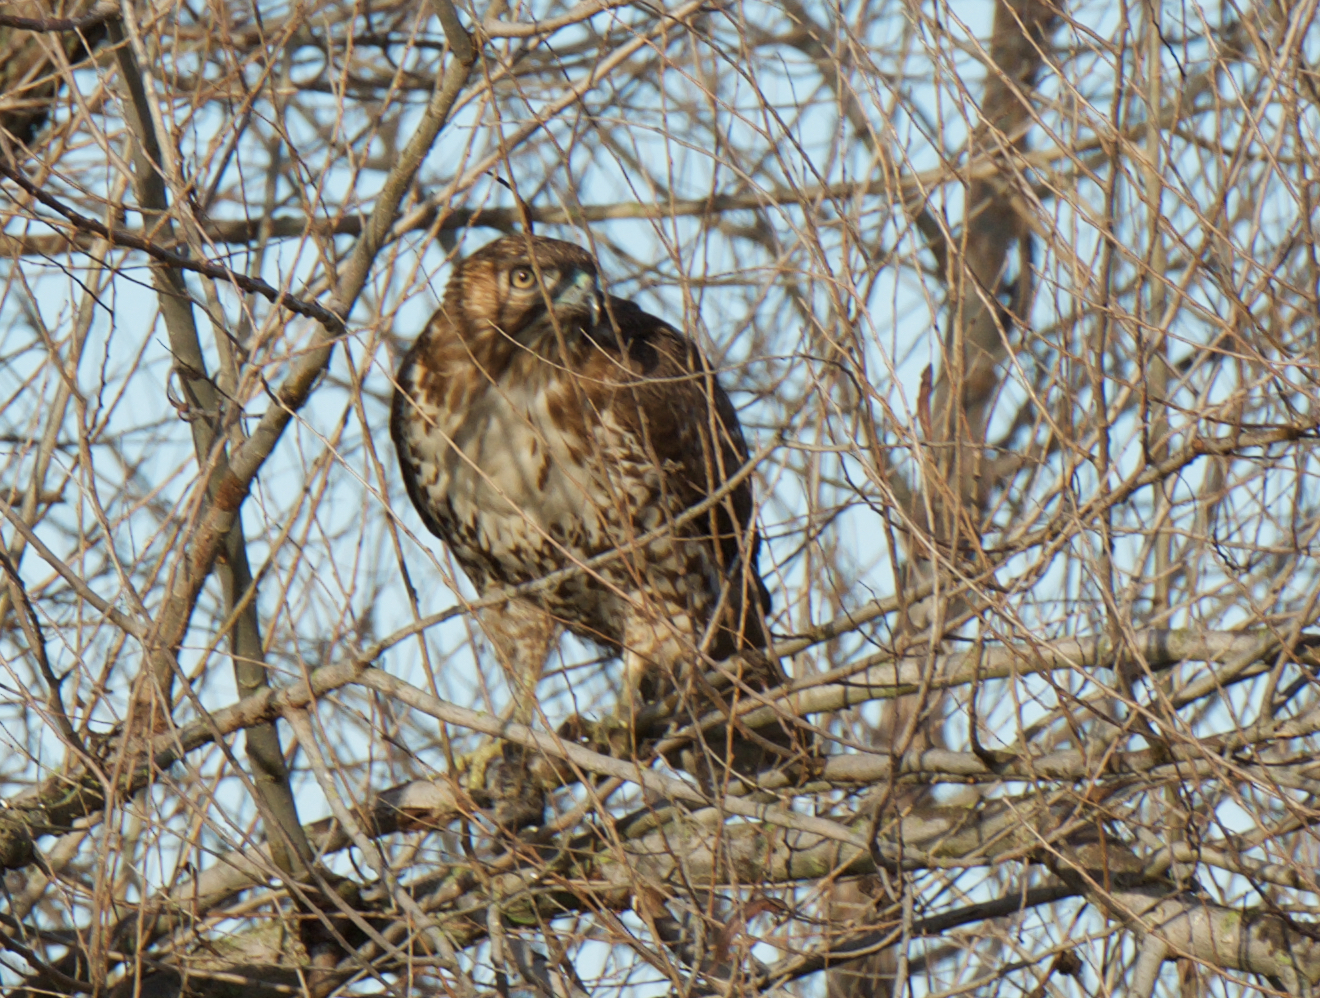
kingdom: Animalia
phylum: Chordata
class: Aves
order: Accipitriformes
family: Accipitridae
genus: Buteo
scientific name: Buteo jamaicensis
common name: Red-tailed hawk
